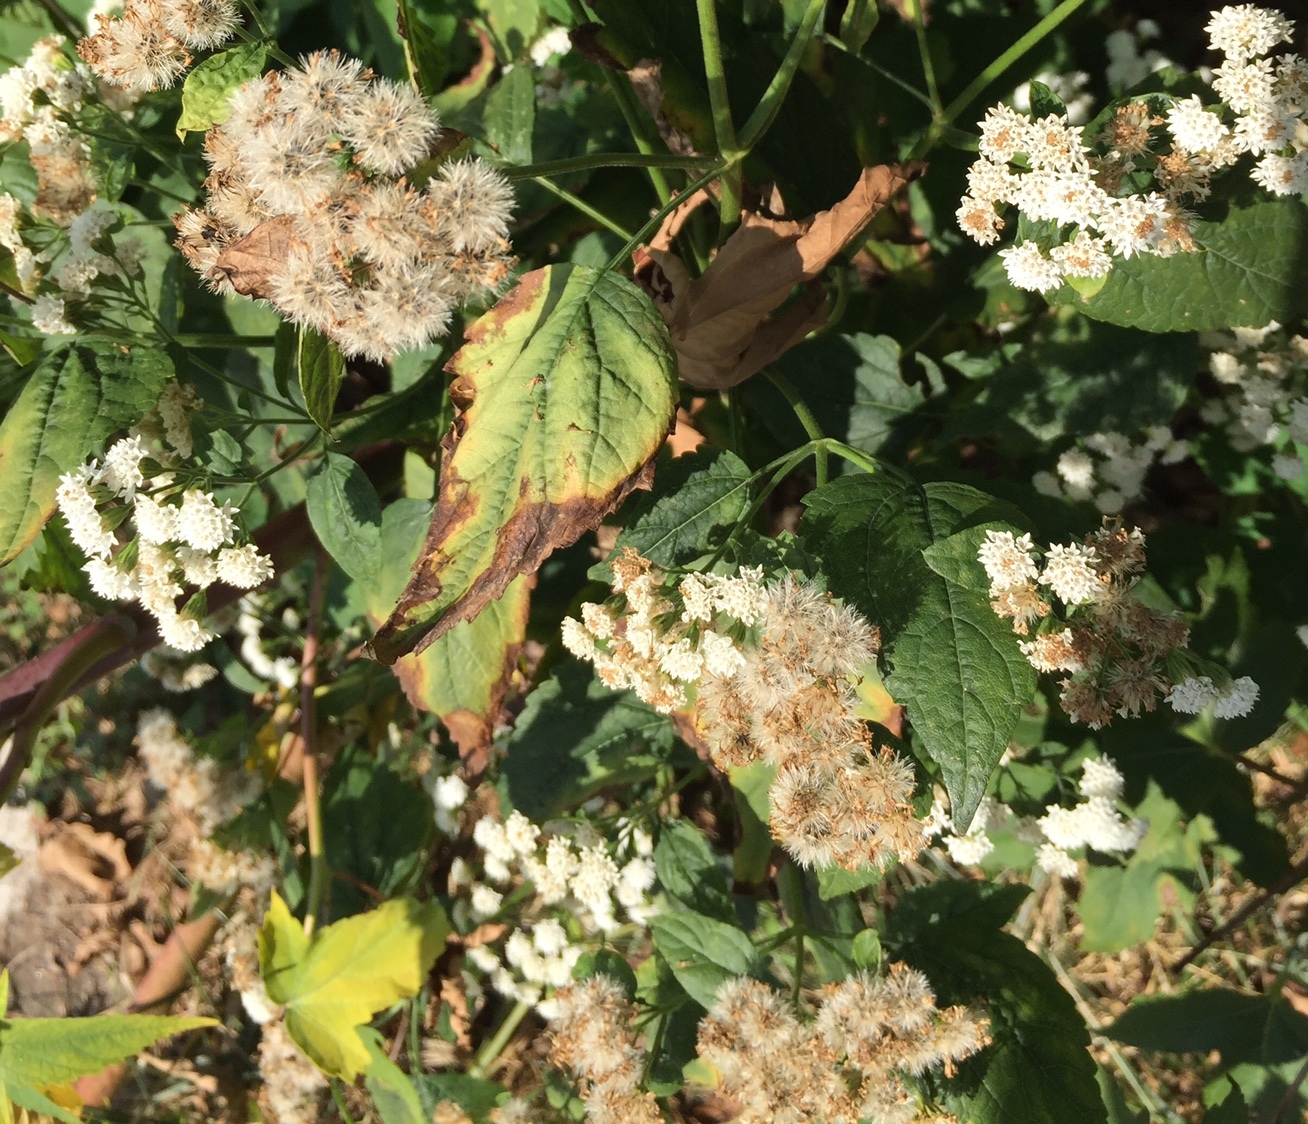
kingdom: Plantae
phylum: Tracheophyta
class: Magnoliopsida
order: Asterales
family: Asteraceae
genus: Ageratina
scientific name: Ageratina altissima
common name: White snakeroot
